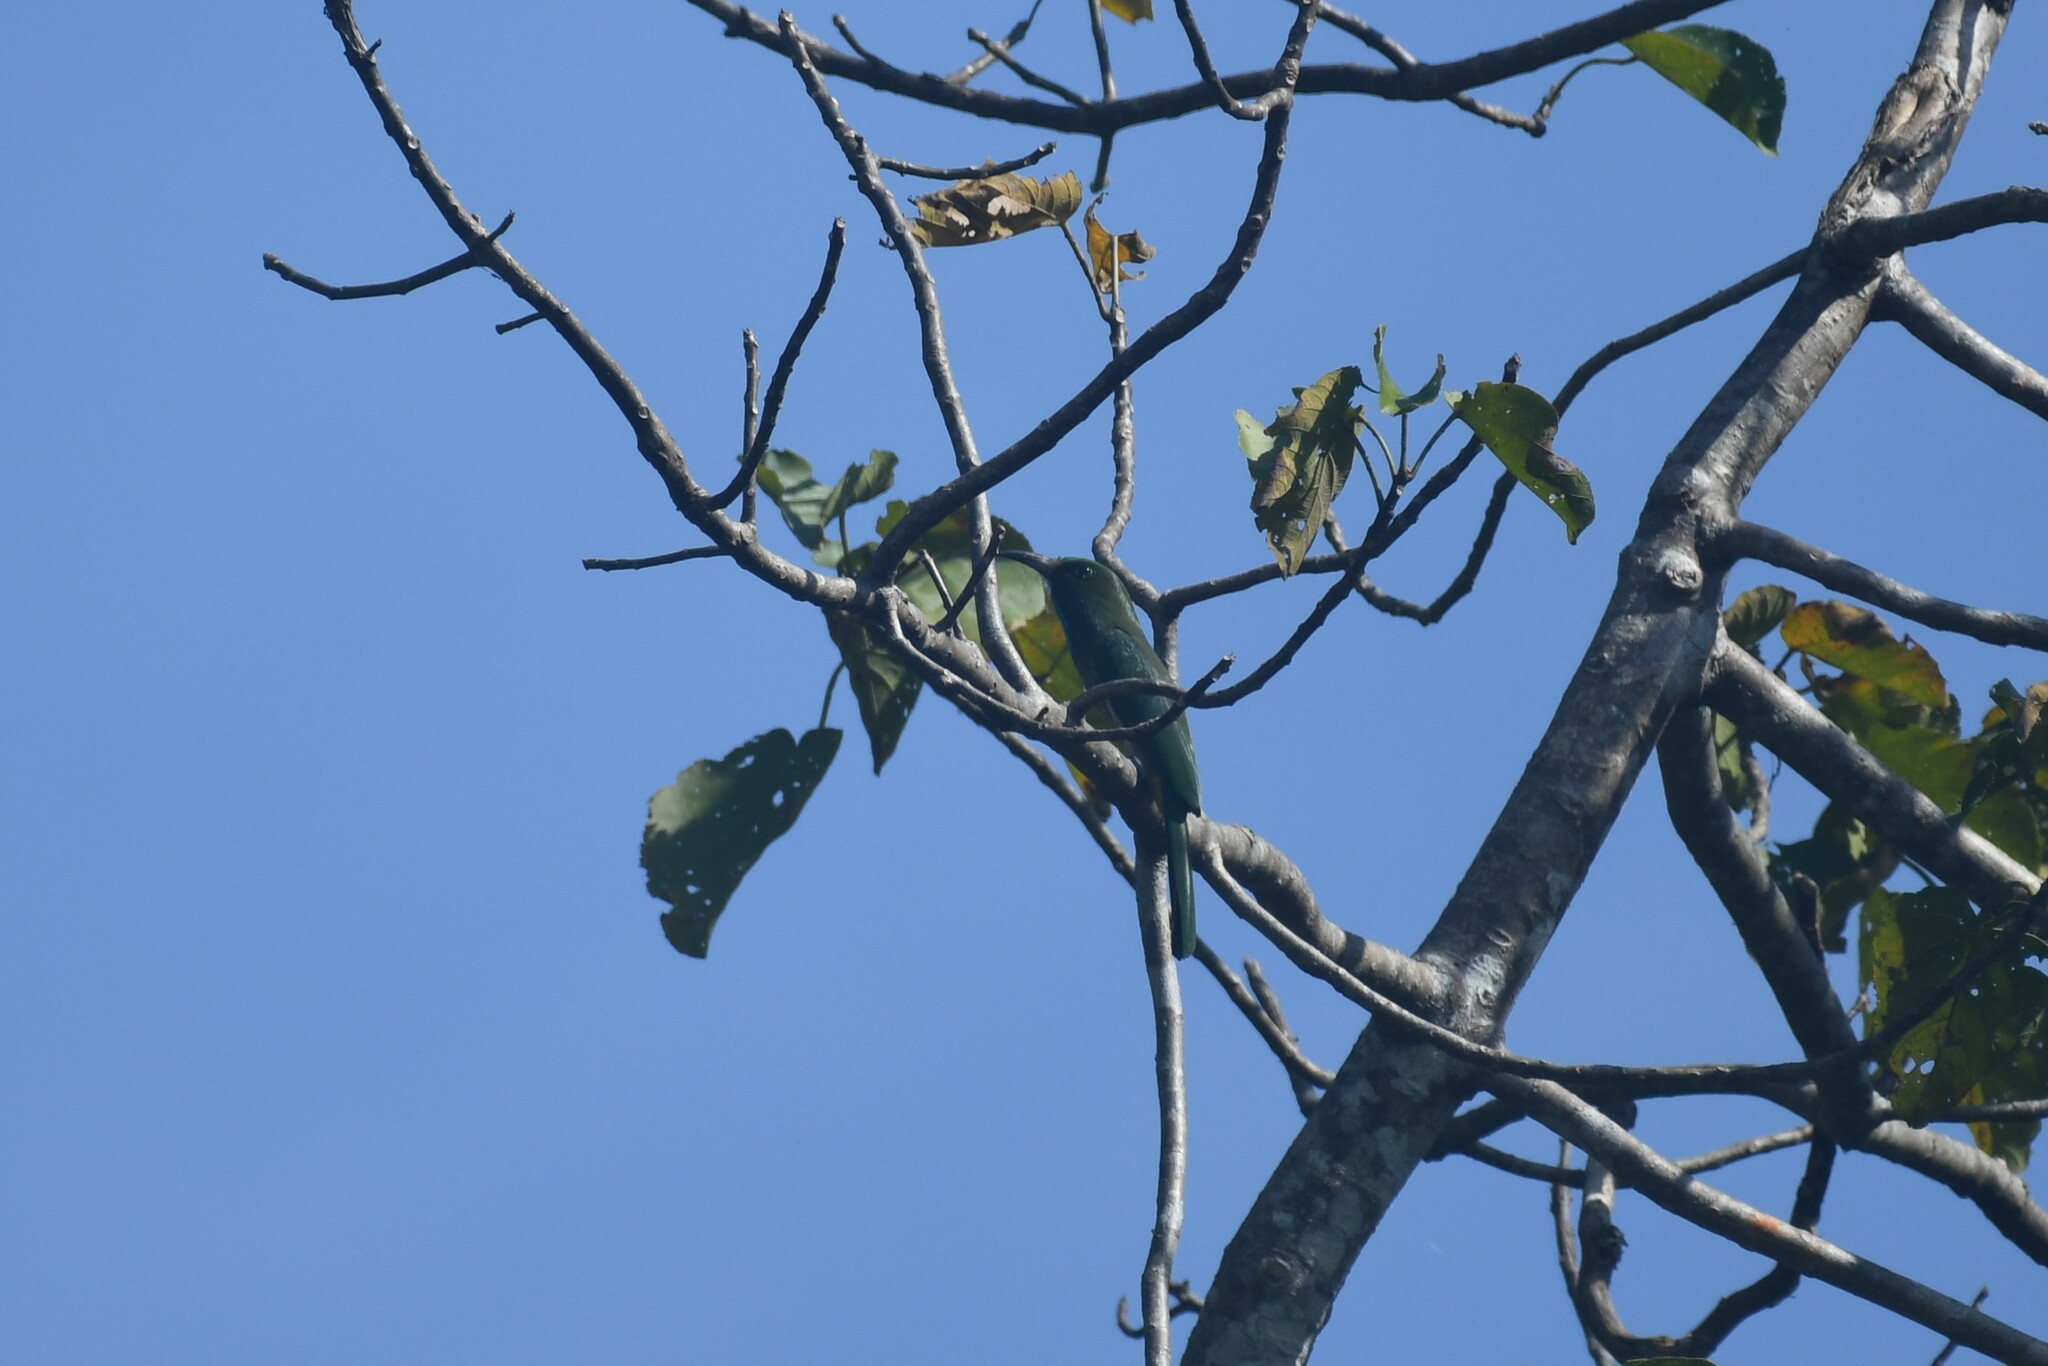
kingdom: Animalia
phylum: Chordata
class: Aves
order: Coraciiformes
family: Meropidae
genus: Nyctyornis
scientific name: Nyctyornis athertoni
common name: Blue-bearded bee-eater
